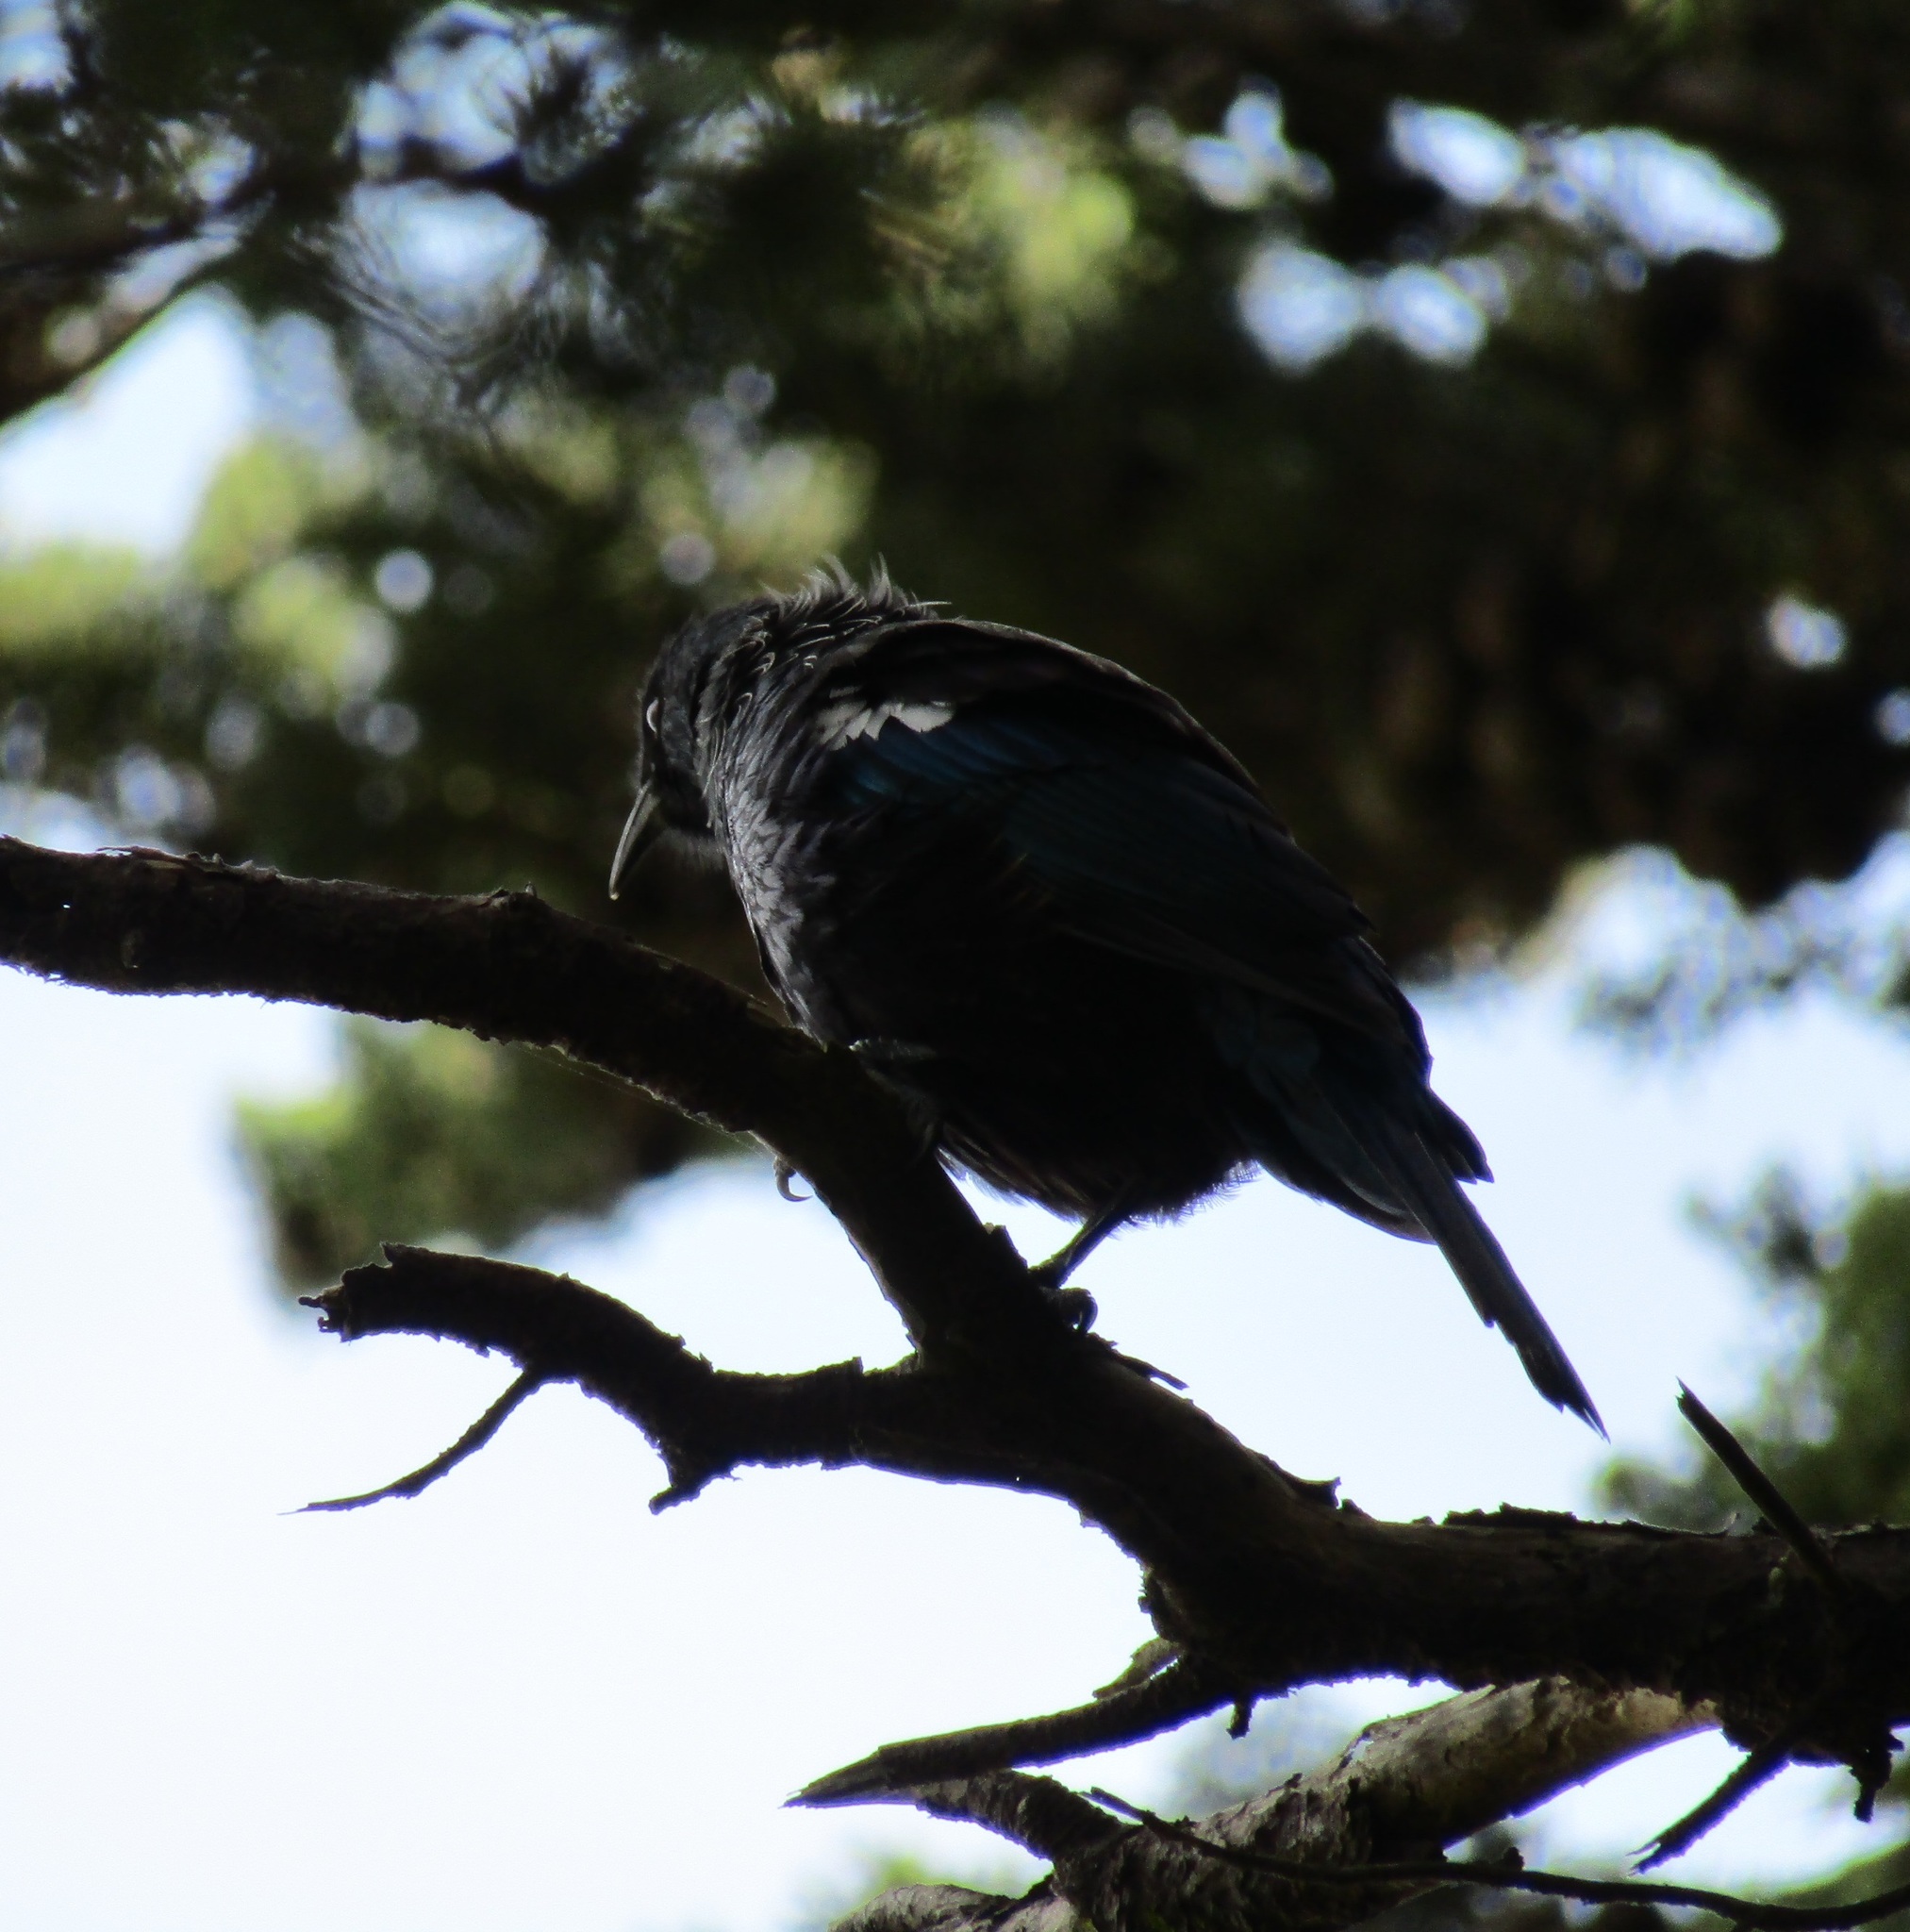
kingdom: Animalia
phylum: Chordata
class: Aves
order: Passeriformes
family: Meliphagidae
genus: Prosthemadera
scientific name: Prosthemadera novaeseelandiae
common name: Tui
